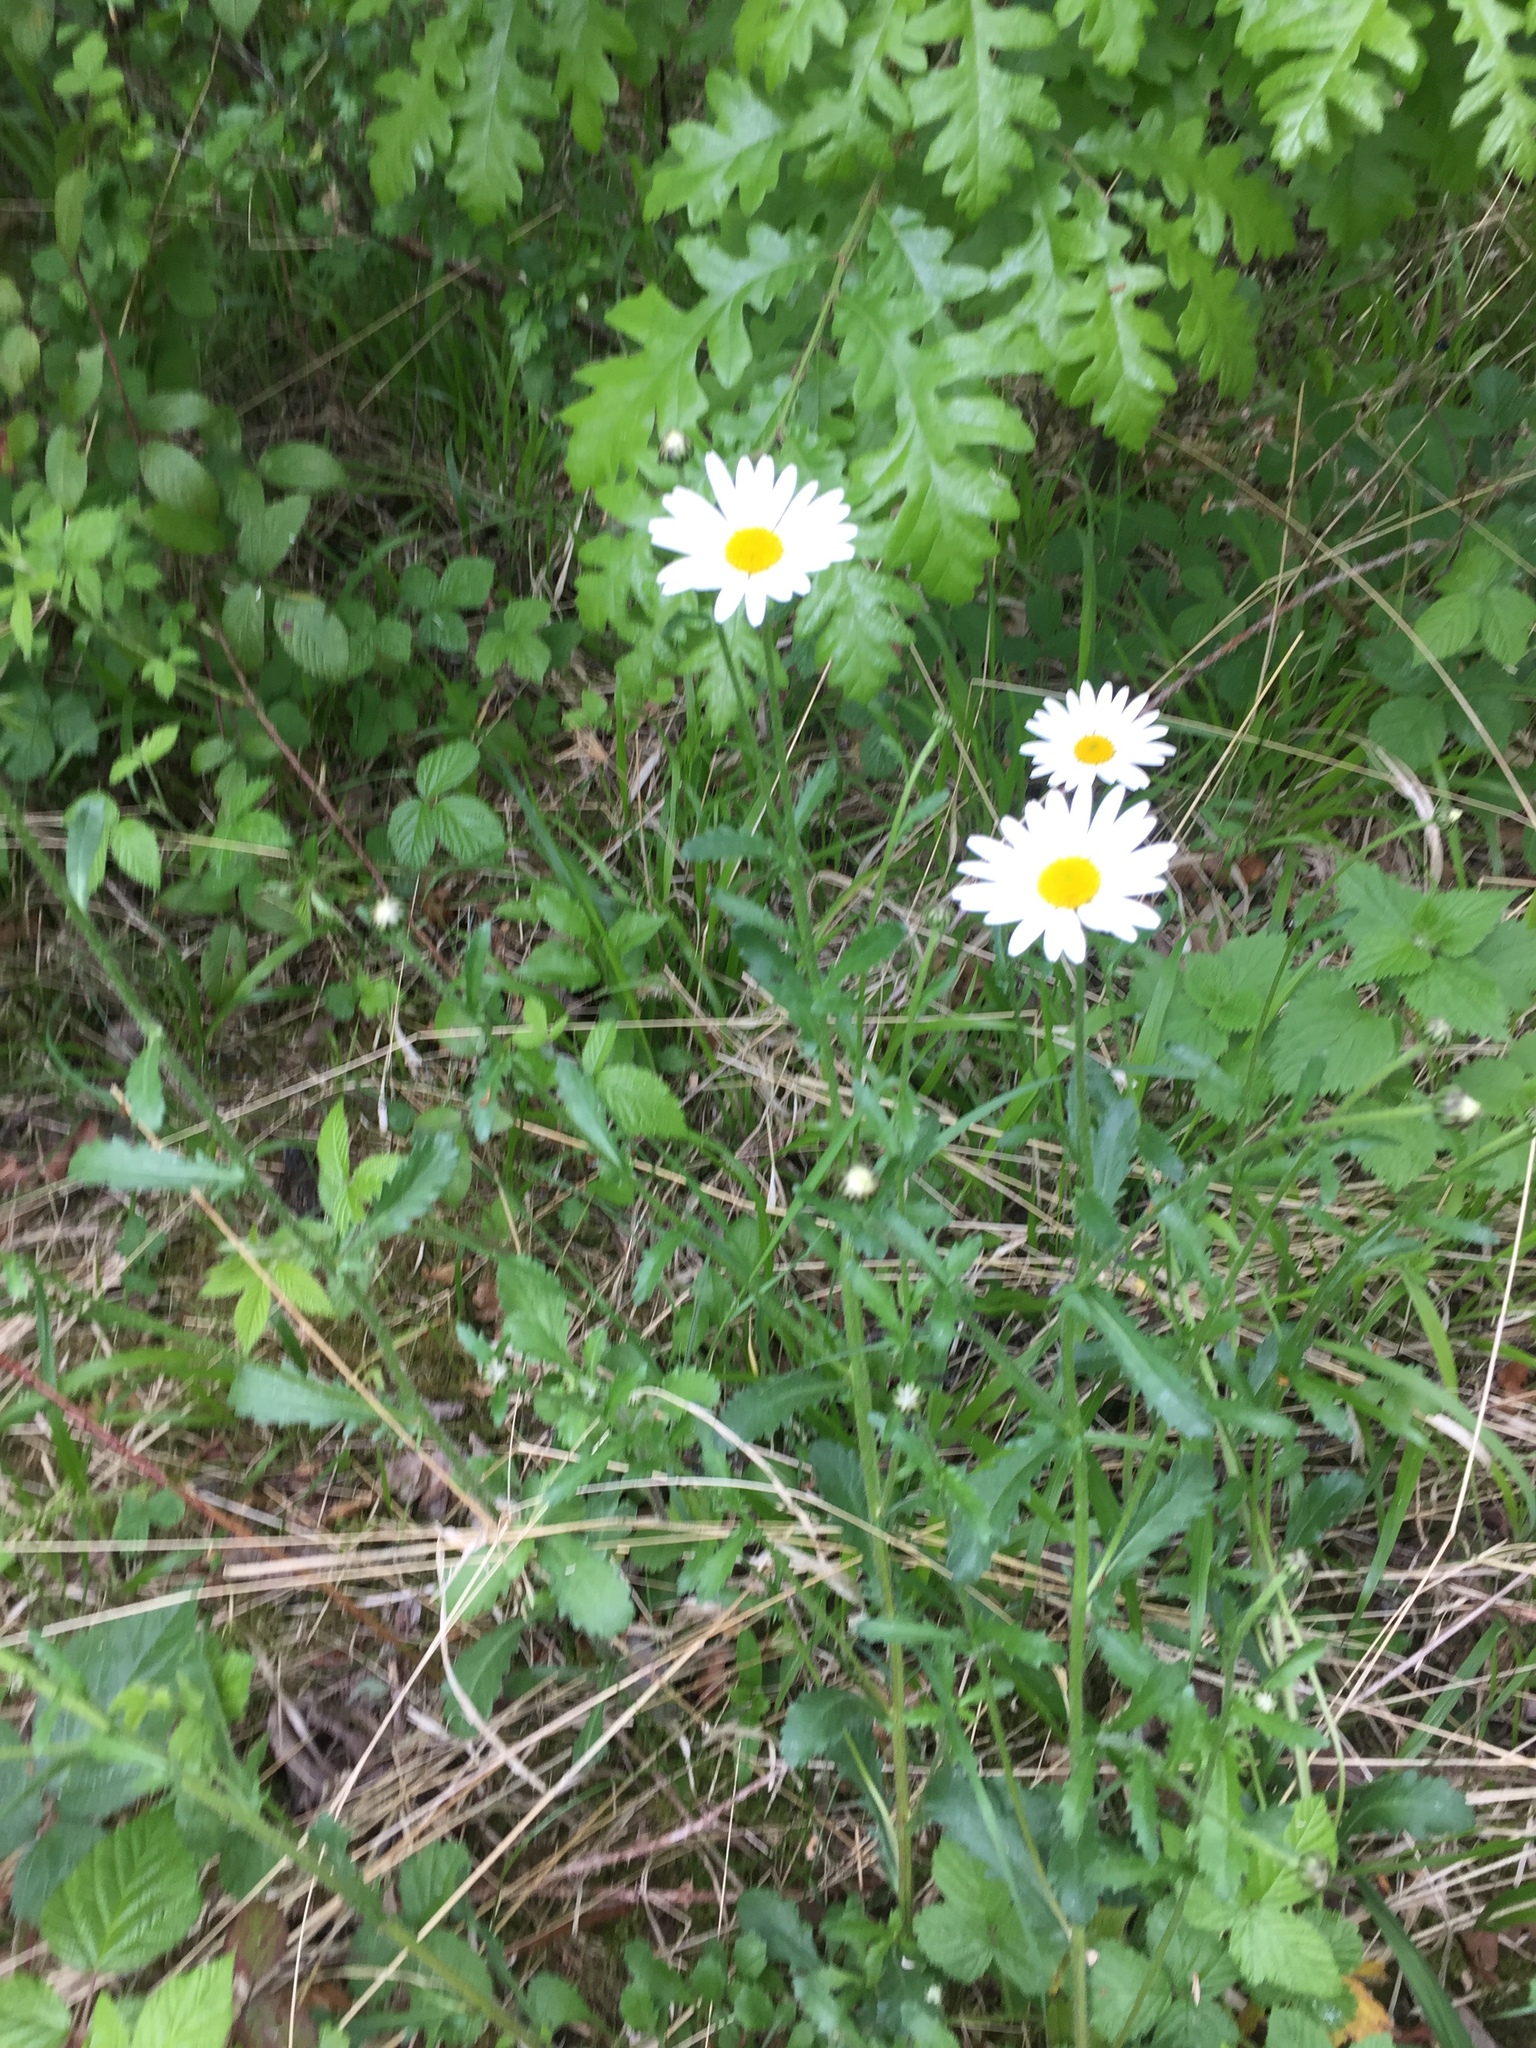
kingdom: Plantae
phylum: Tracheophyta
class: Magnoliopsida
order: Asterales
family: Asteraceae
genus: Leucanthemum
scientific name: Leucanthemum vulgare
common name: Oxeye daisy
